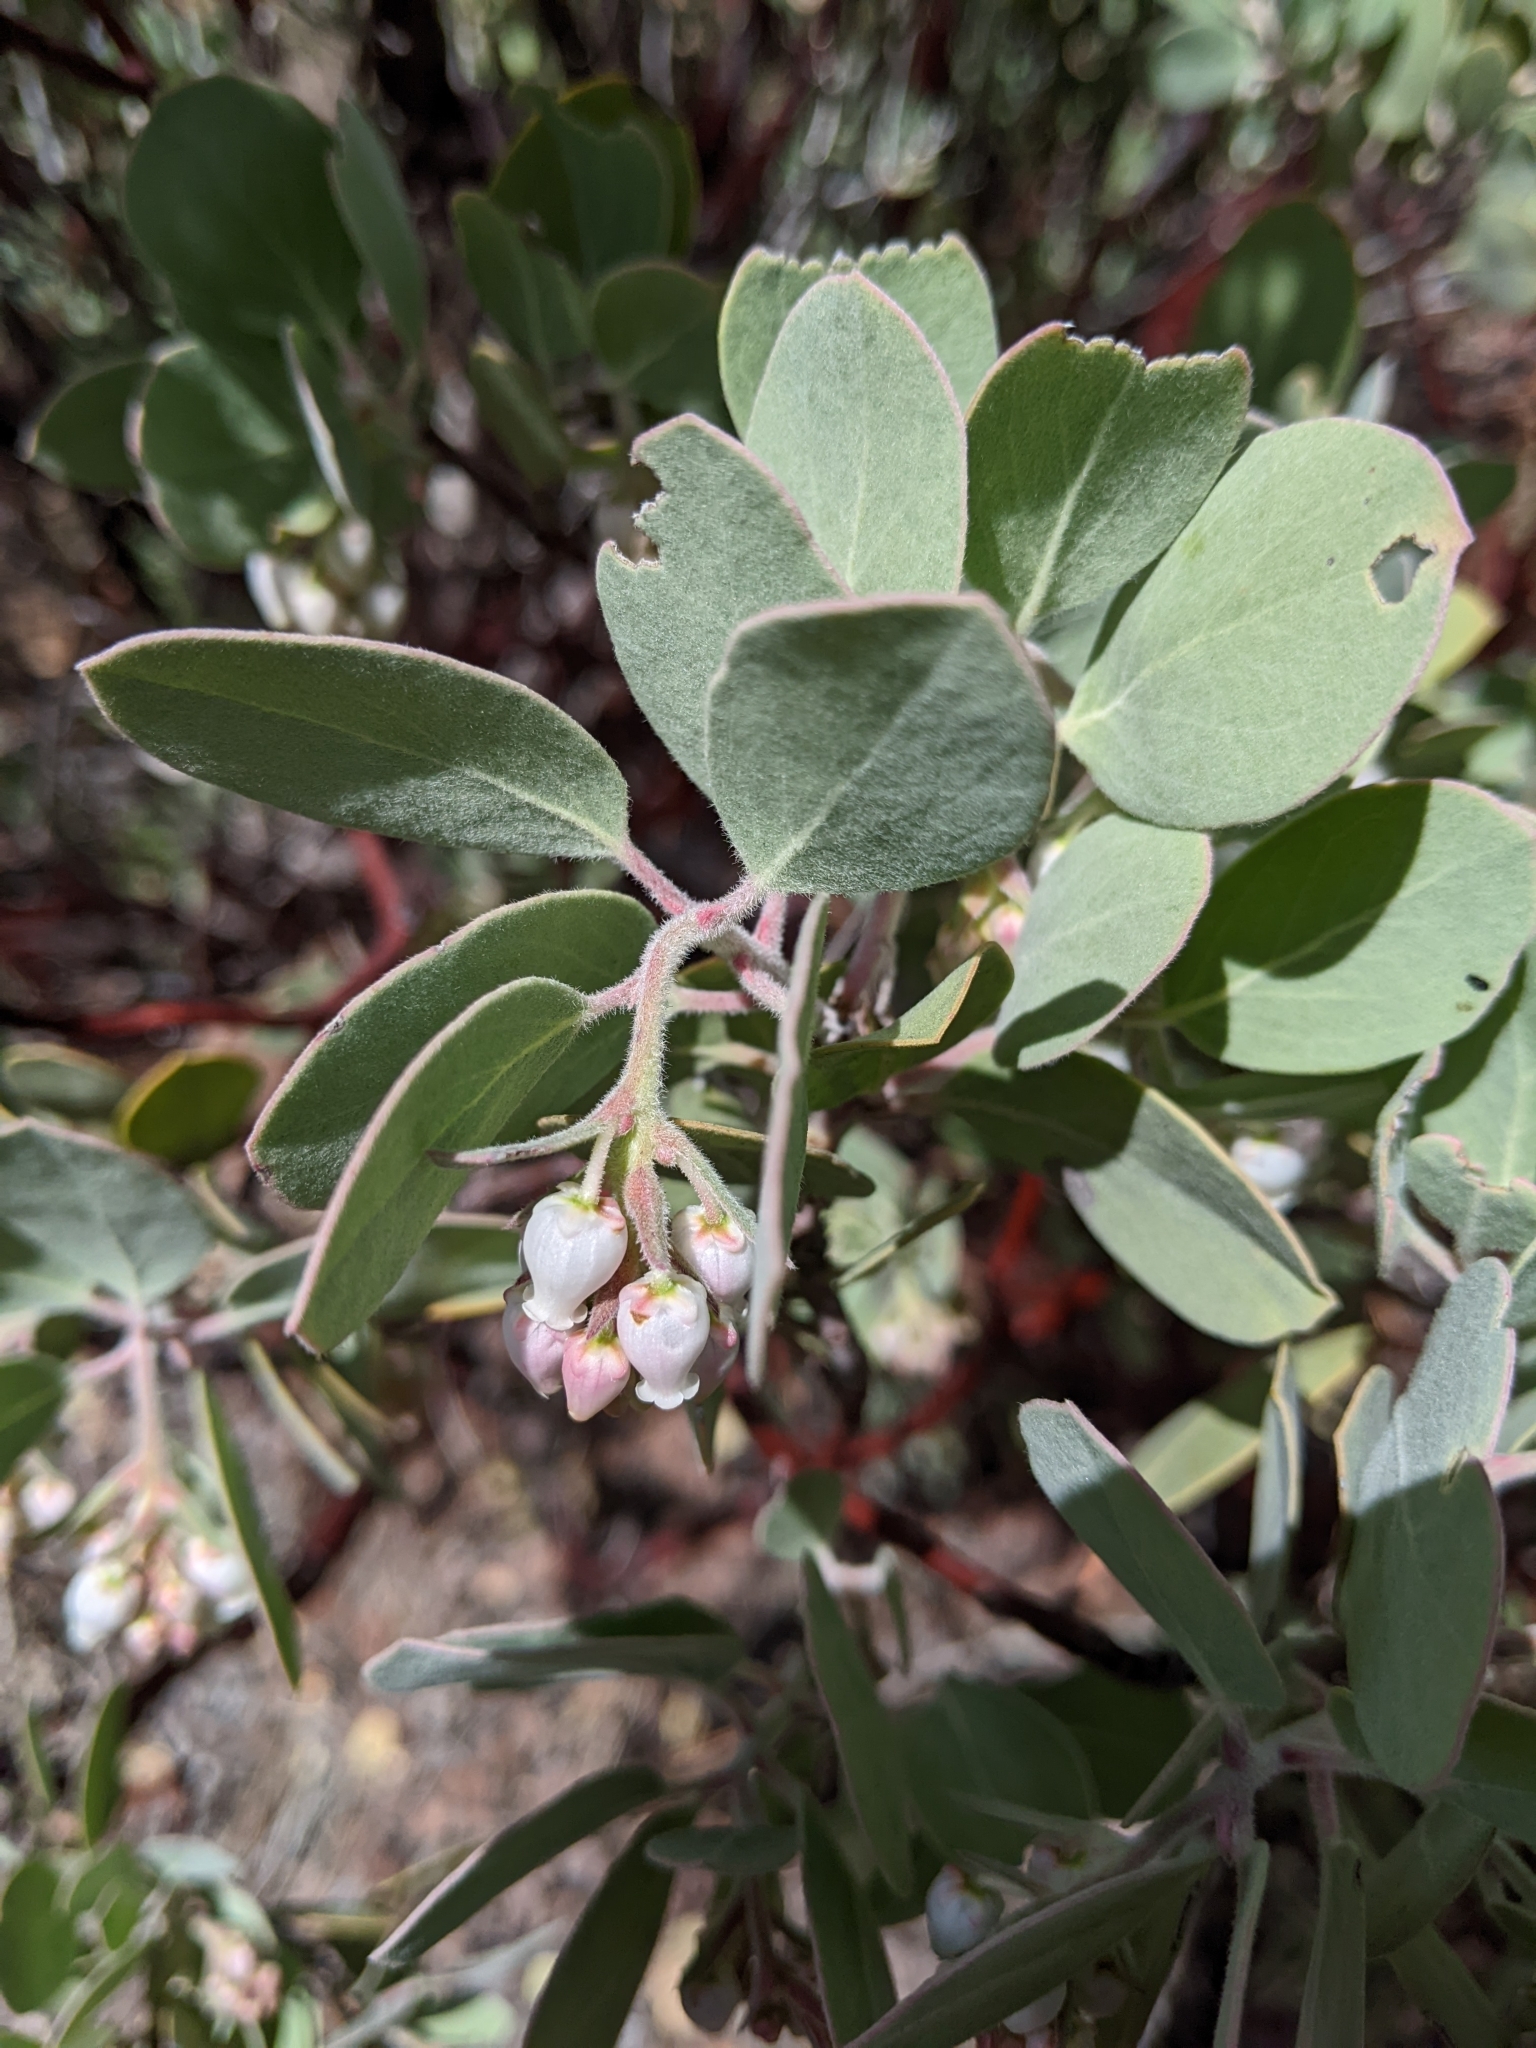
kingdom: Plantae
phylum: Tracheophyta
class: Magnoliopsida
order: Ericales
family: Ericaceae
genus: Arctostaphylos
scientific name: Arctostaphylos canescens
